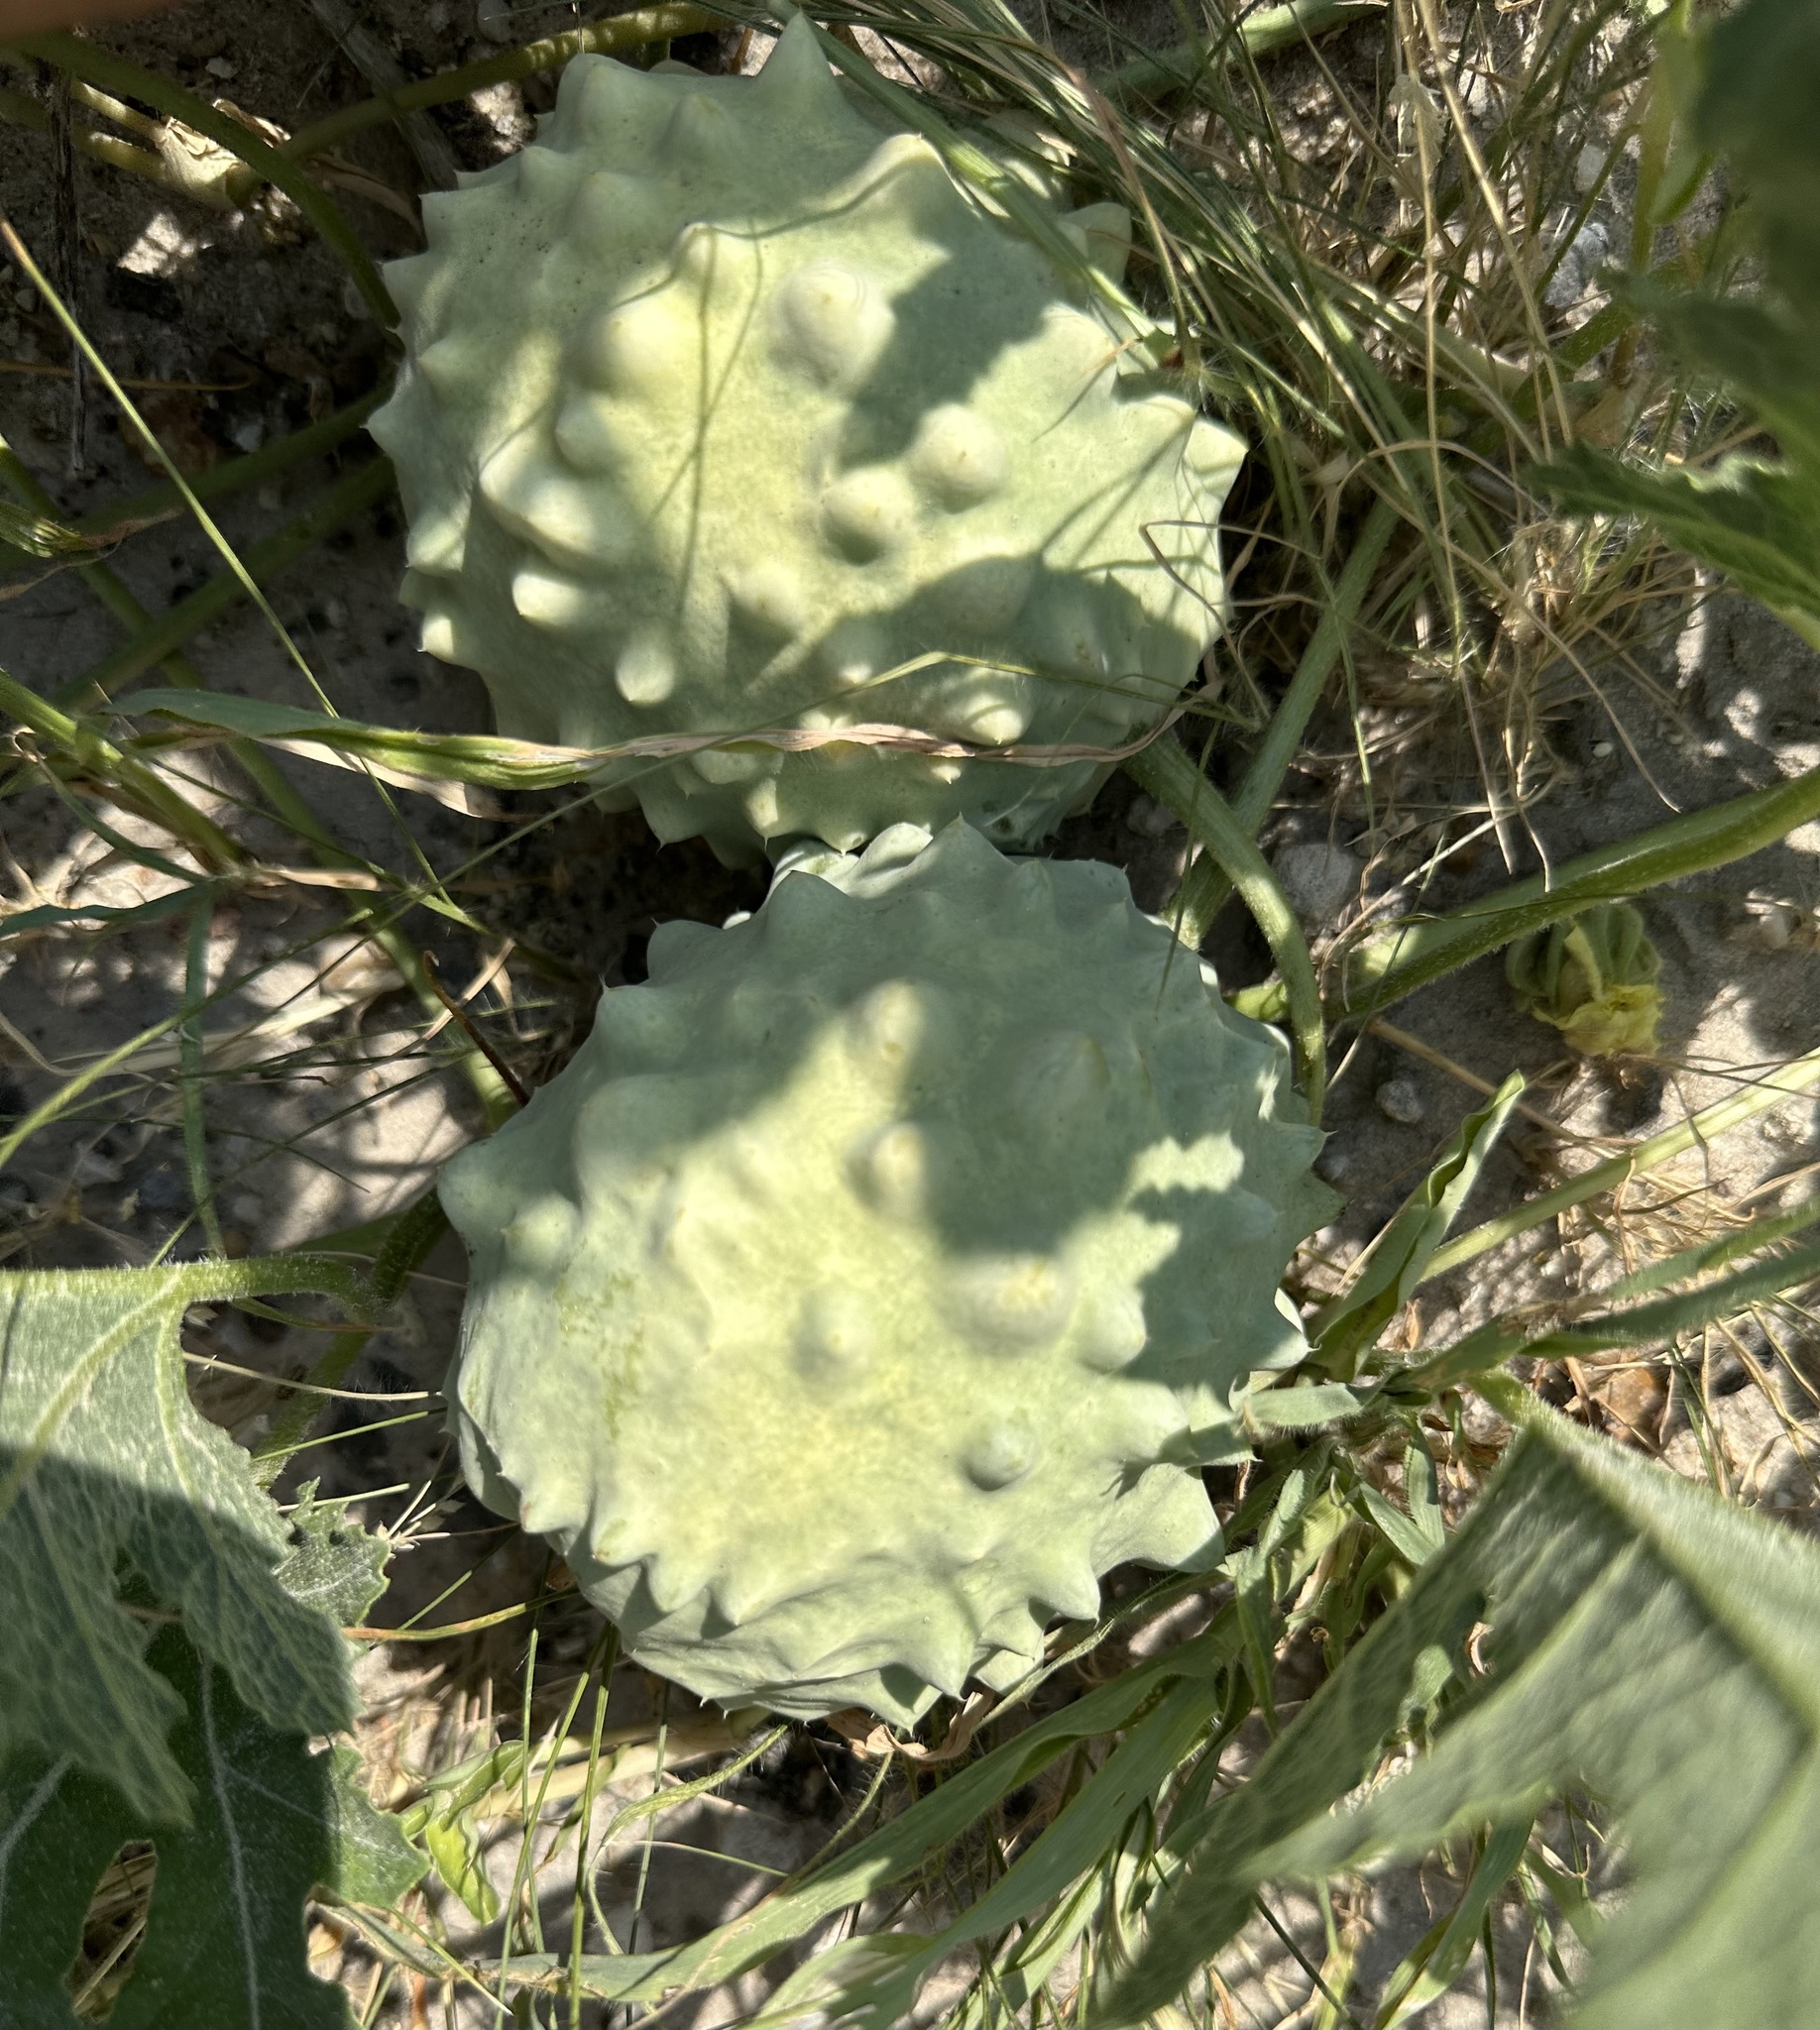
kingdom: Plantae
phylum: Tracheophyta
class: Magnoliopsida
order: Cucurbitales
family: Cucurbitaceae
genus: Citrullus
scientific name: Citrullus naudinianus
